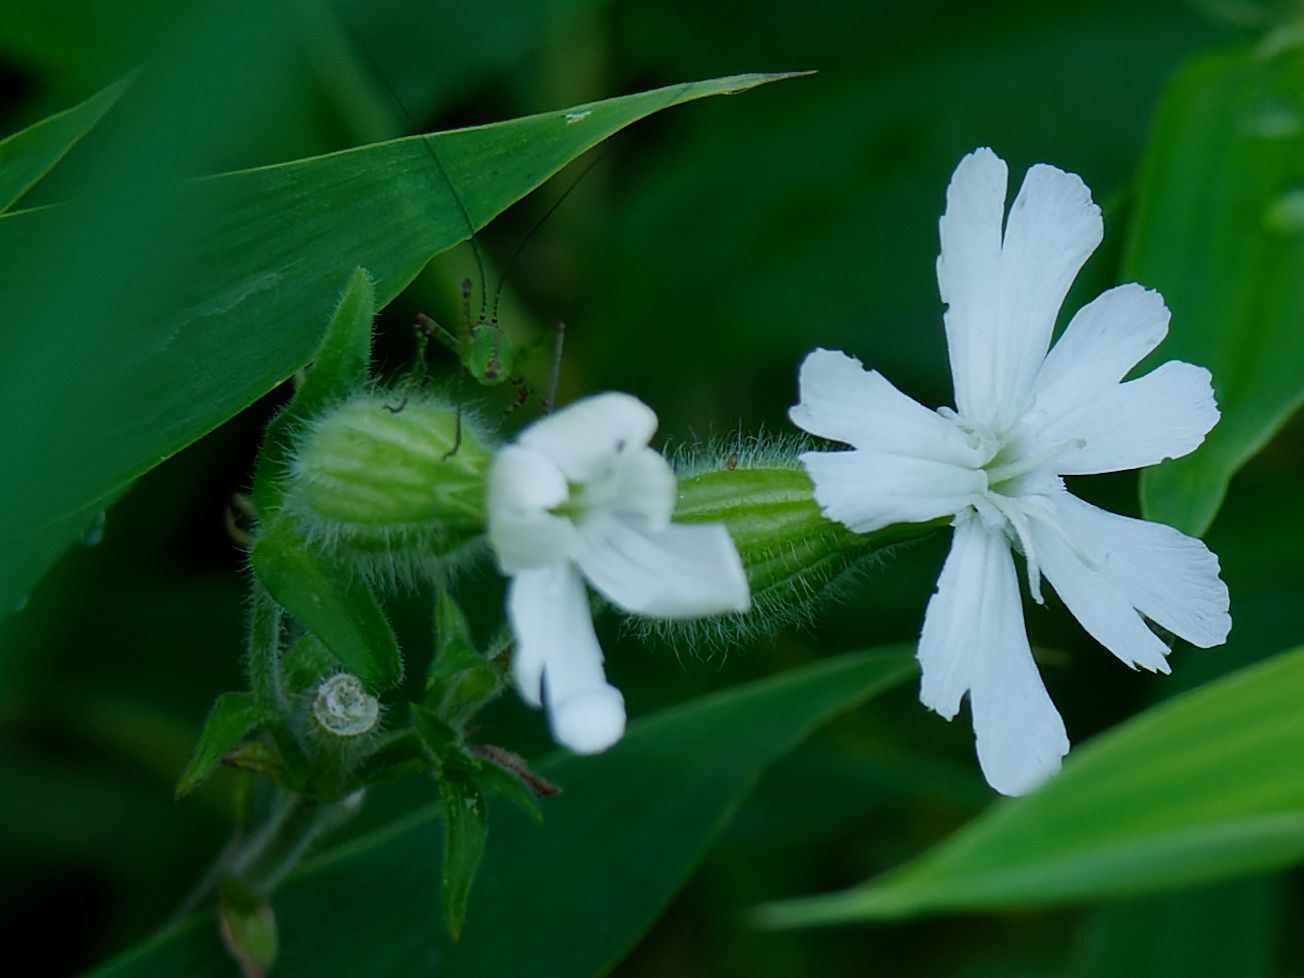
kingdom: Plantae
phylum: Tracheophyta
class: Magnoliopsida
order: Caryophyllales
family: Caryophyllaceae
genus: Silene
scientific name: Silene latifolia
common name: White campion
